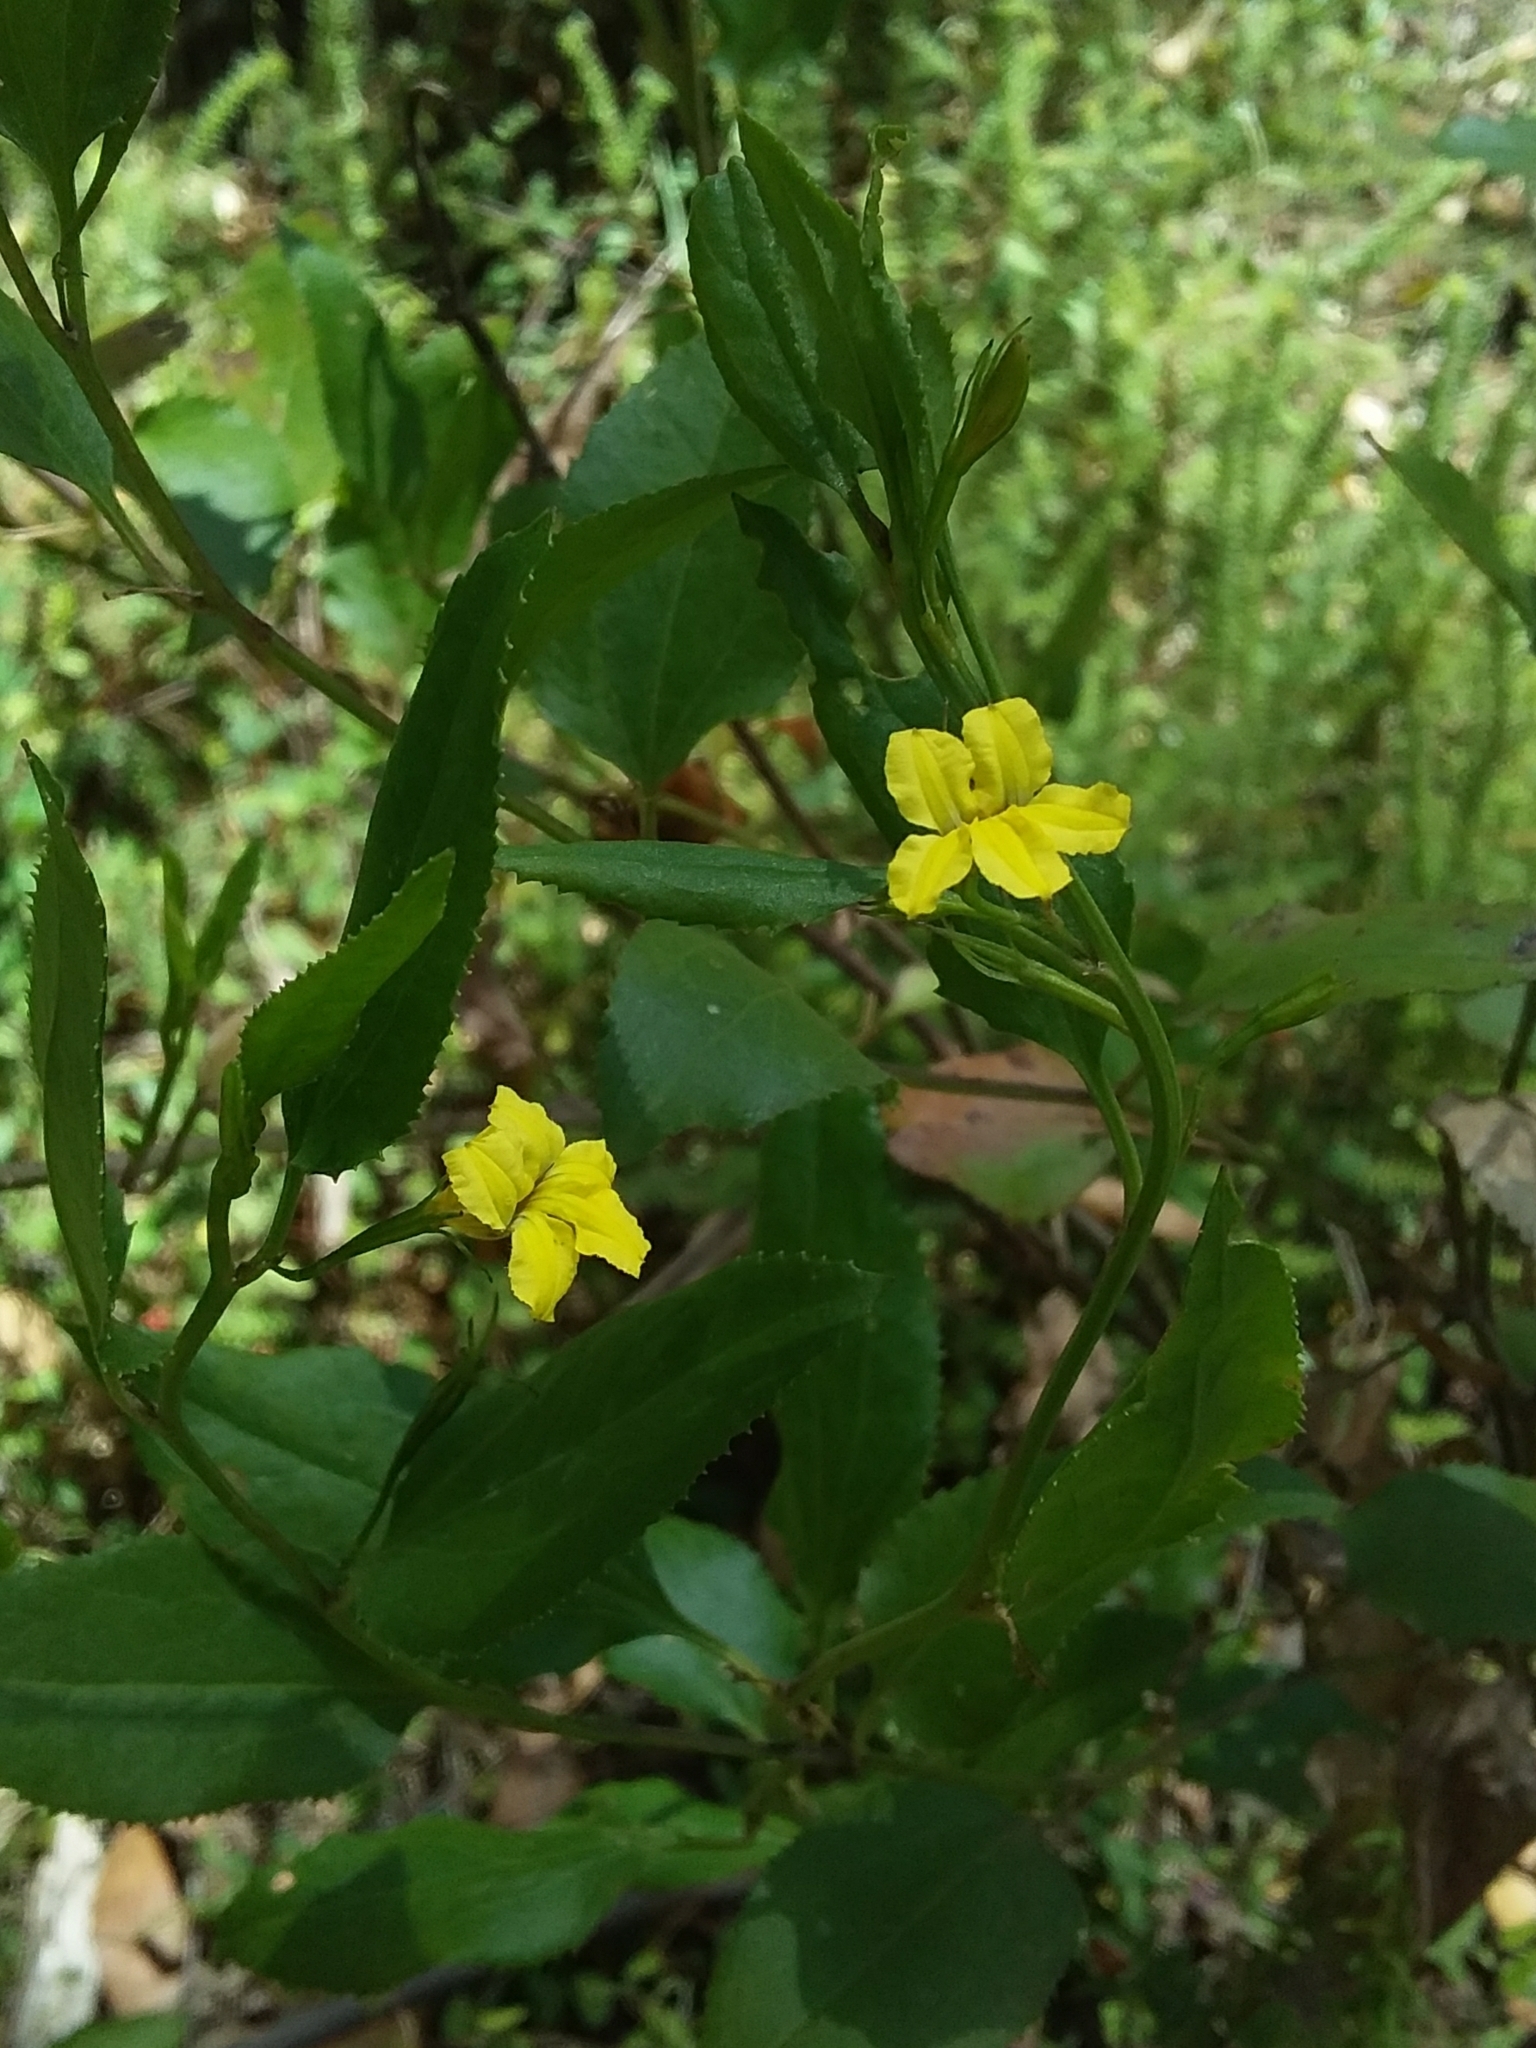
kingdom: Plantae
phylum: Tracheophyta
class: Magnoliopsida
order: Asterales
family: Goodeniaceae
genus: Goodenia
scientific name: Goodenia ovata
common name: Hop goodenia
